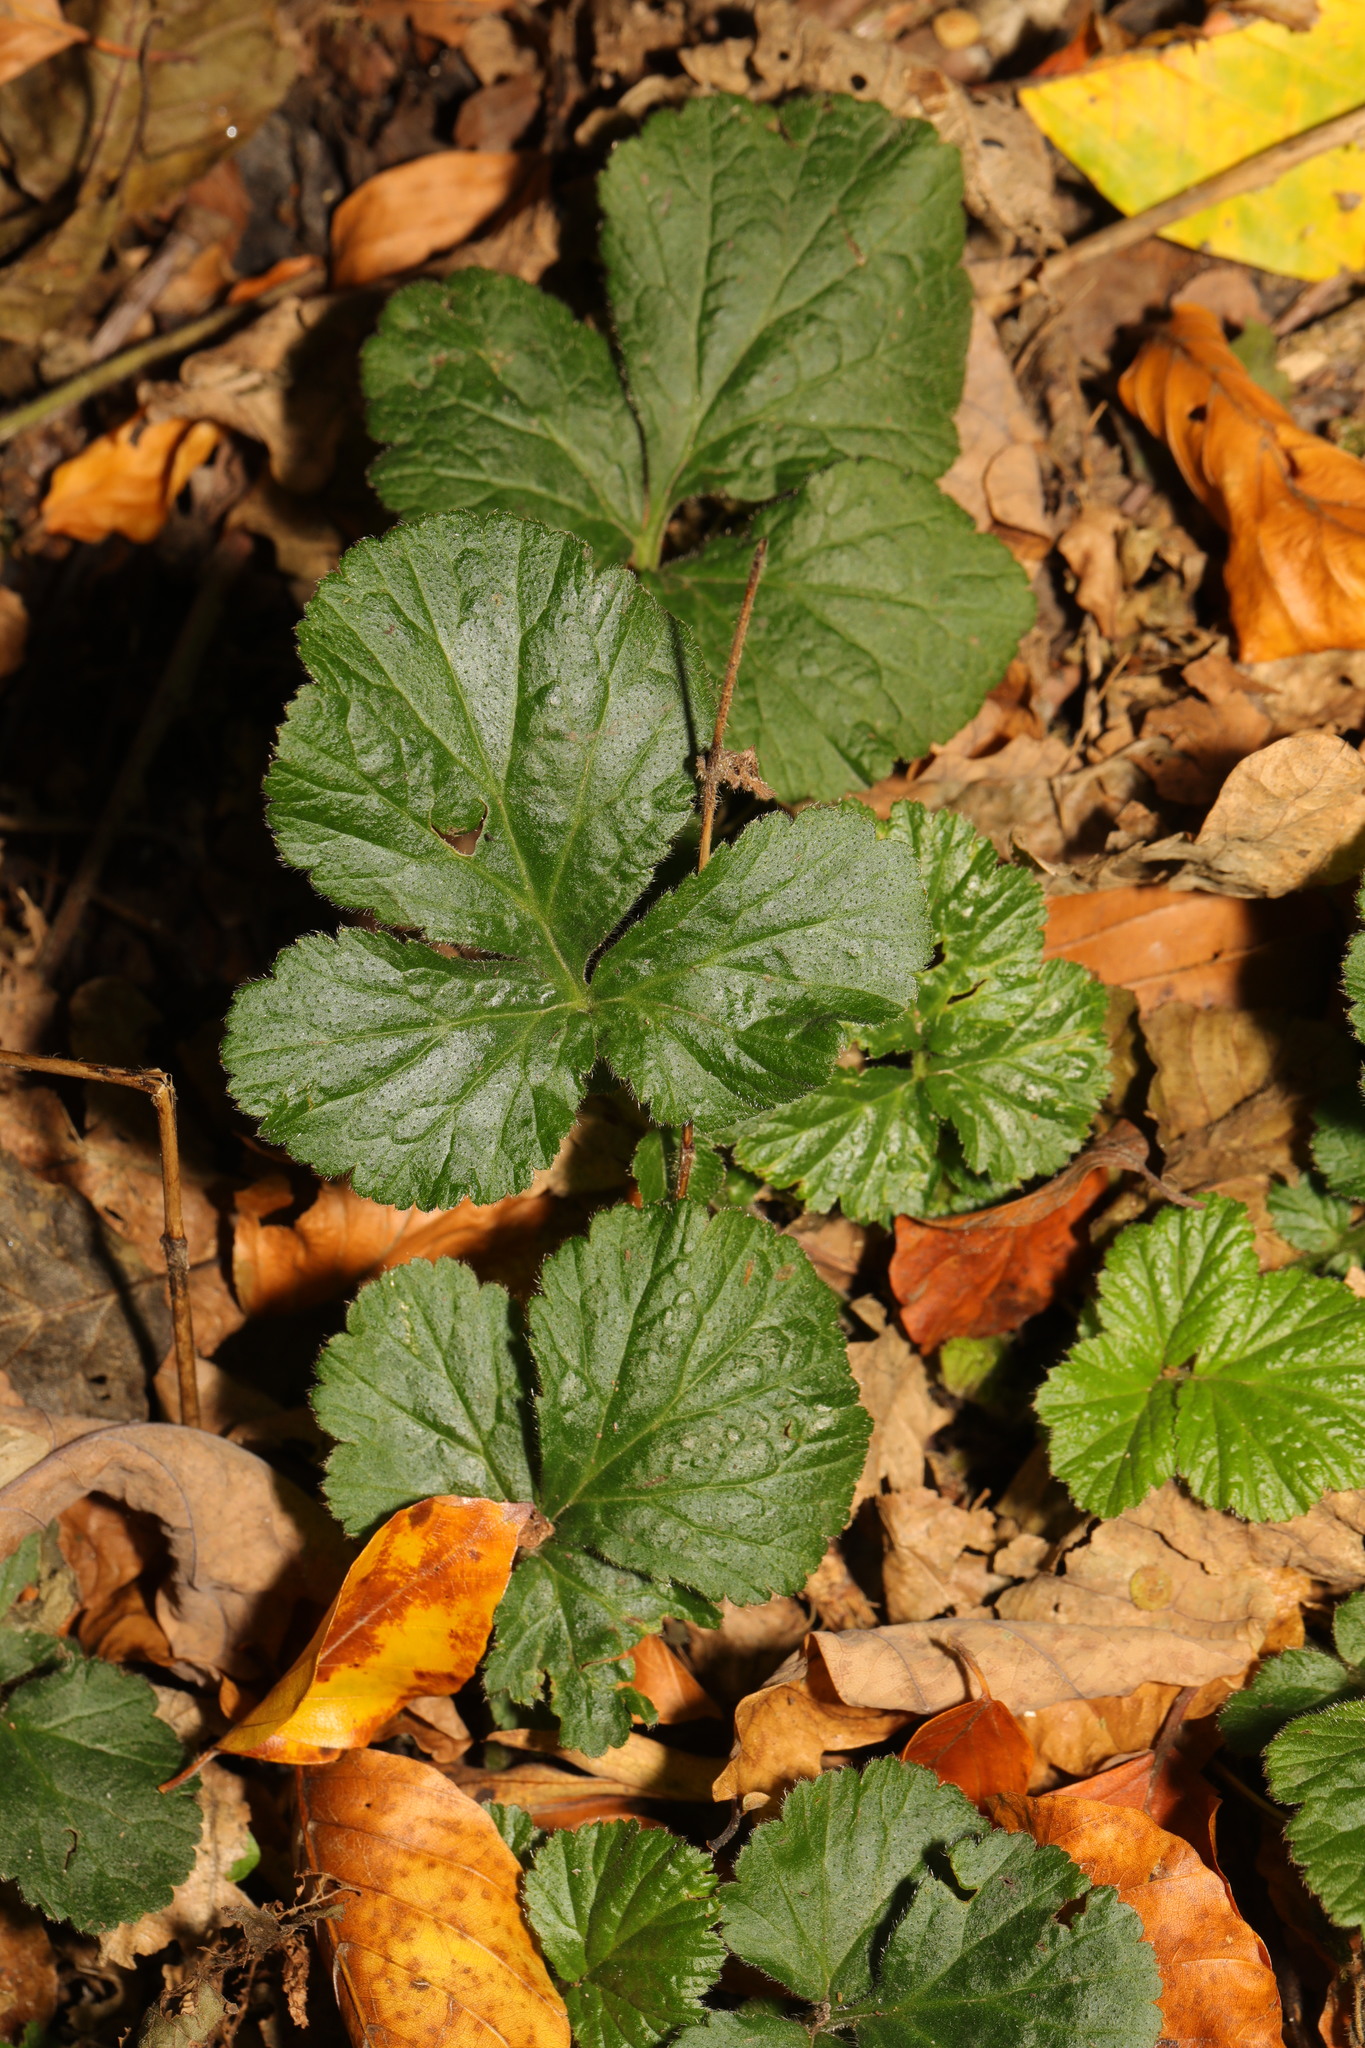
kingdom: Plantae
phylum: Tracheophyta
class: Magnoliopsida
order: Rosales
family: Rosaceae
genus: Geum
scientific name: Geum urbanum
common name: Wood avens
